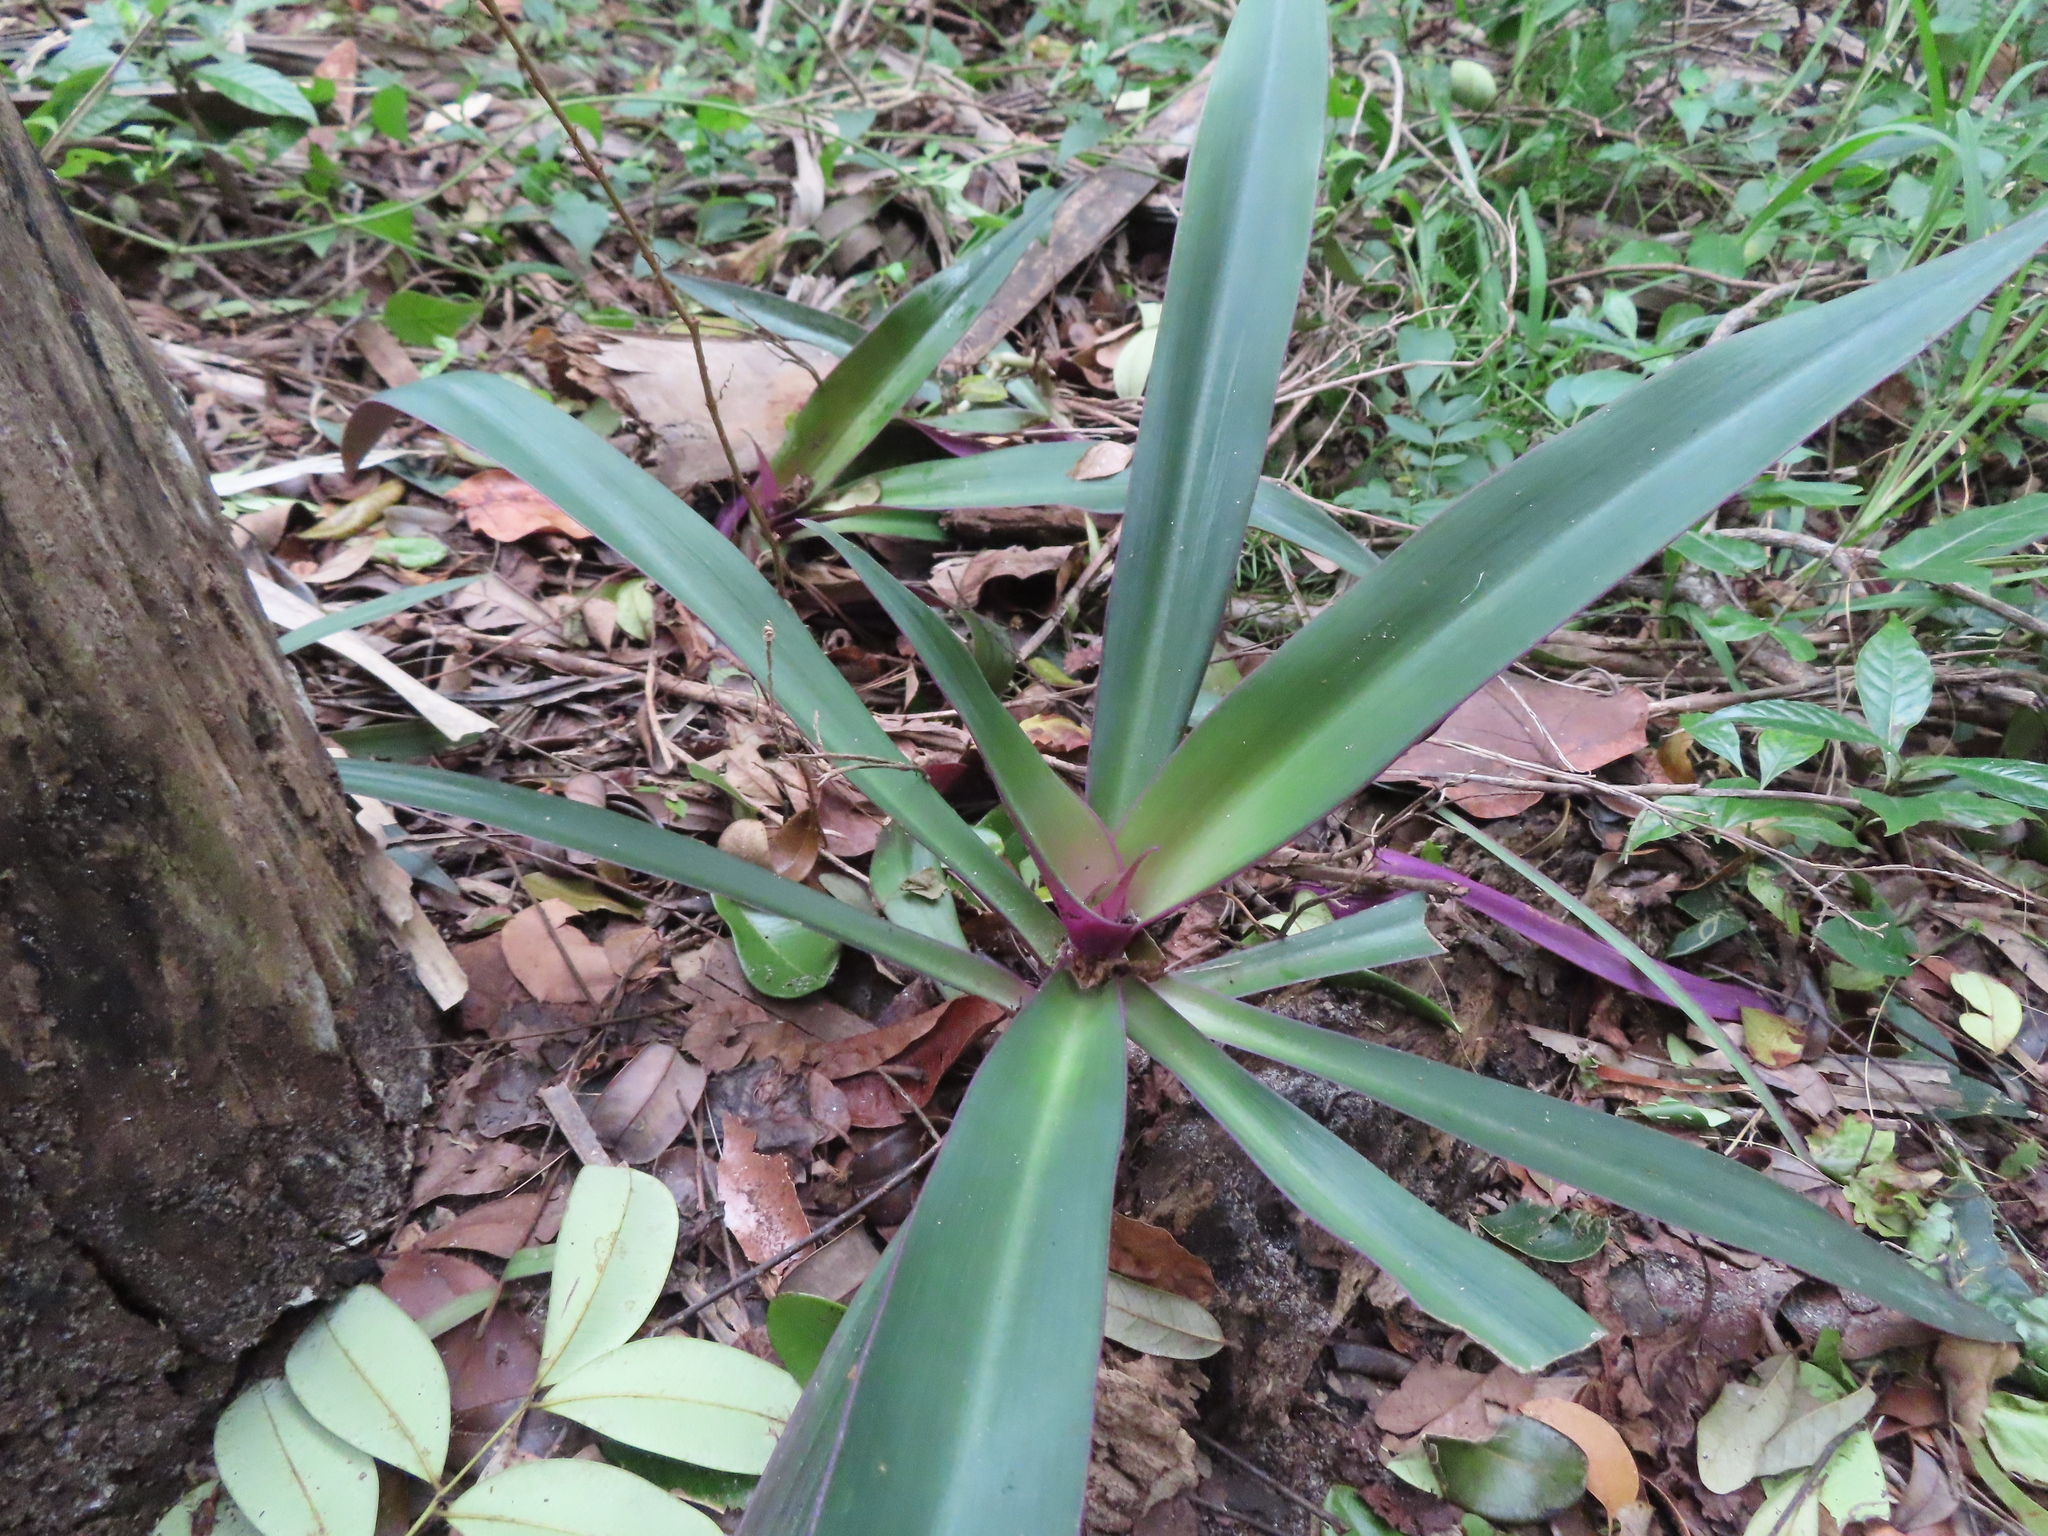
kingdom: Plantae
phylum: Tracheophyta
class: Liliopsida
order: Commelinales
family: Commelinaceae
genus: Tradescantia
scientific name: Tradescantia spathacea
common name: Boatlily
